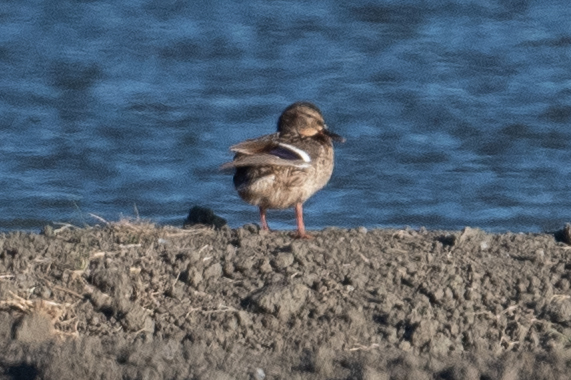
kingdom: Animalia
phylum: Chordata
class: Aves
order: Anseriformes
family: Anatidae
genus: Anas
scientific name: Anas platyrhynchos
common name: Mallard
